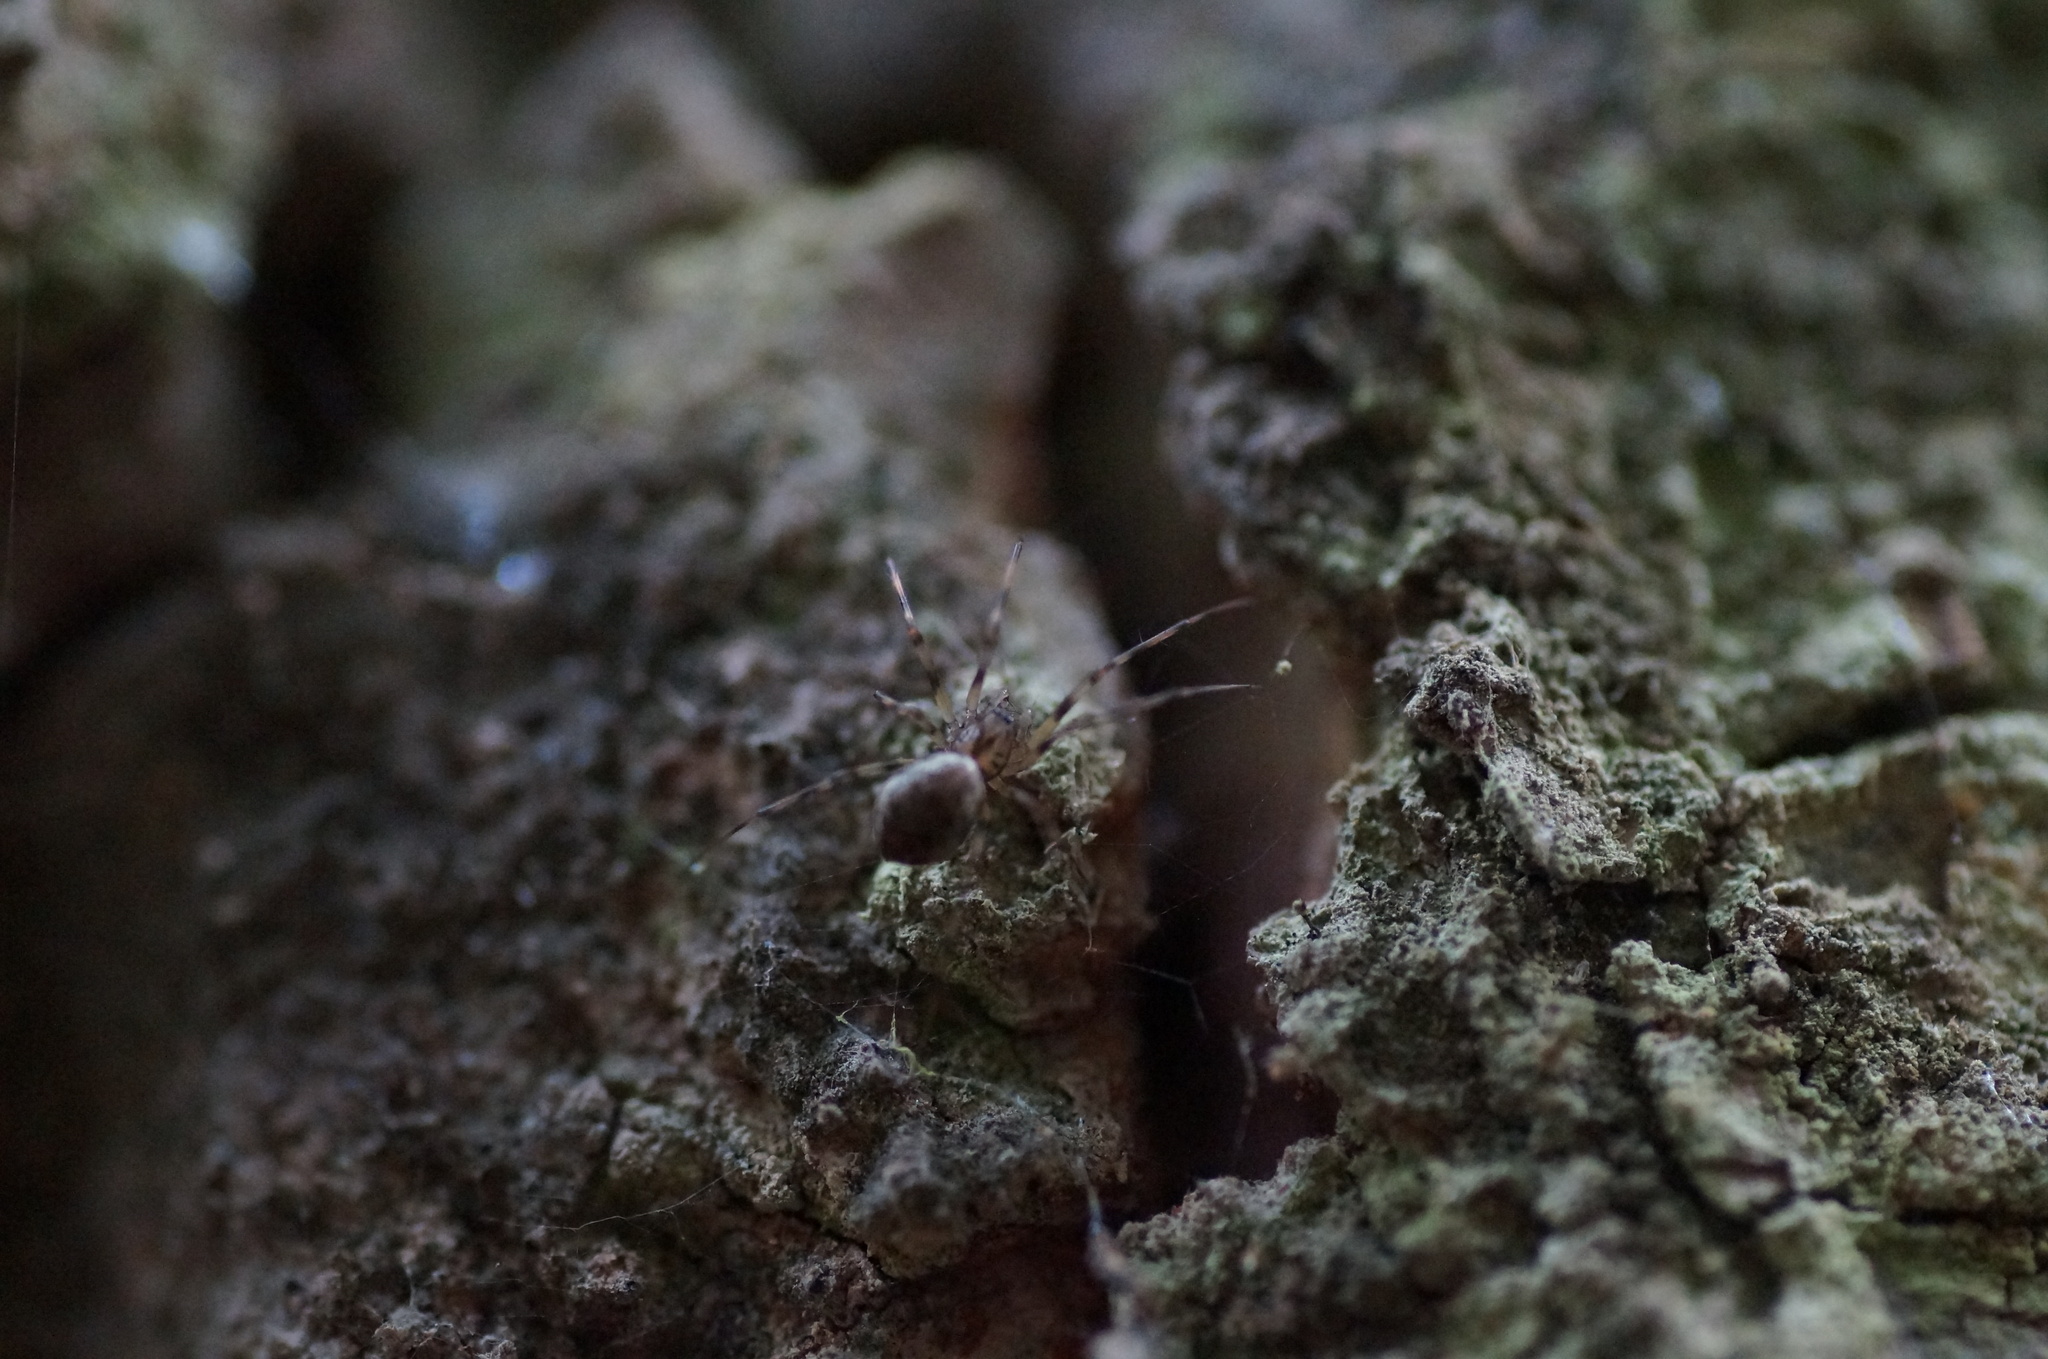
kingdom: Animalia
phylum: Arthropoda
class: Arachnida
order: Araneae
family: Linyphiidae
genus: Drapetisca
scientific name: Drapetisca socialis
